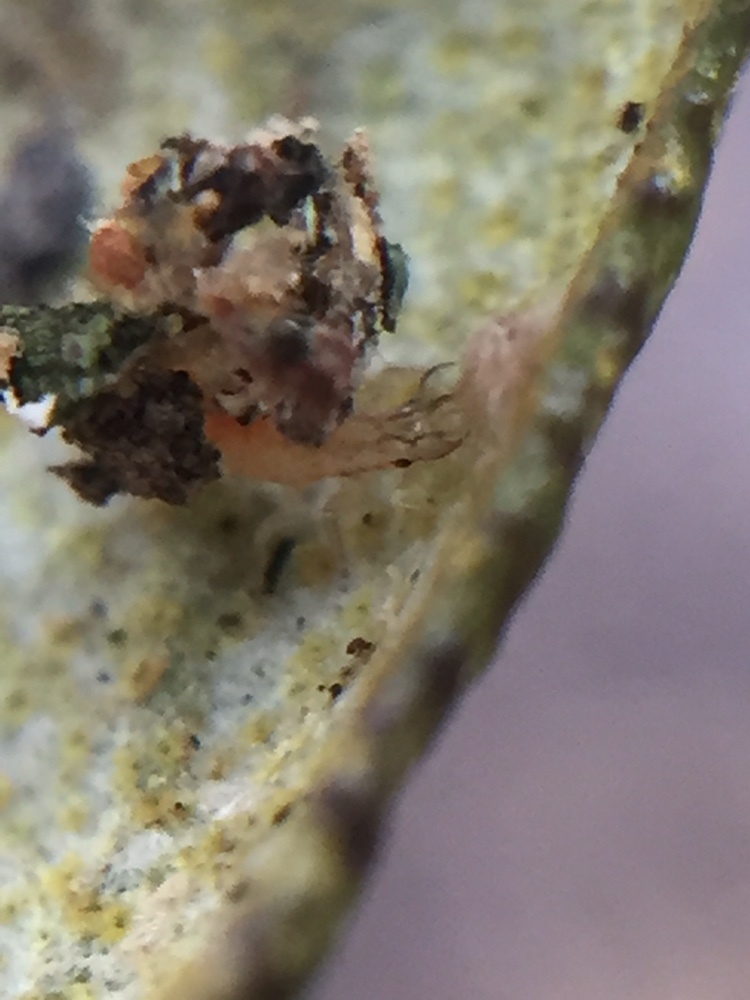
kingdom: Animalia
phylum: Arthropoda
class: Insecta
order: Neuroptera
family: Chrysopidae
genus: Mallada
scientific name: Mallada basalis
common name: Green lacewing
